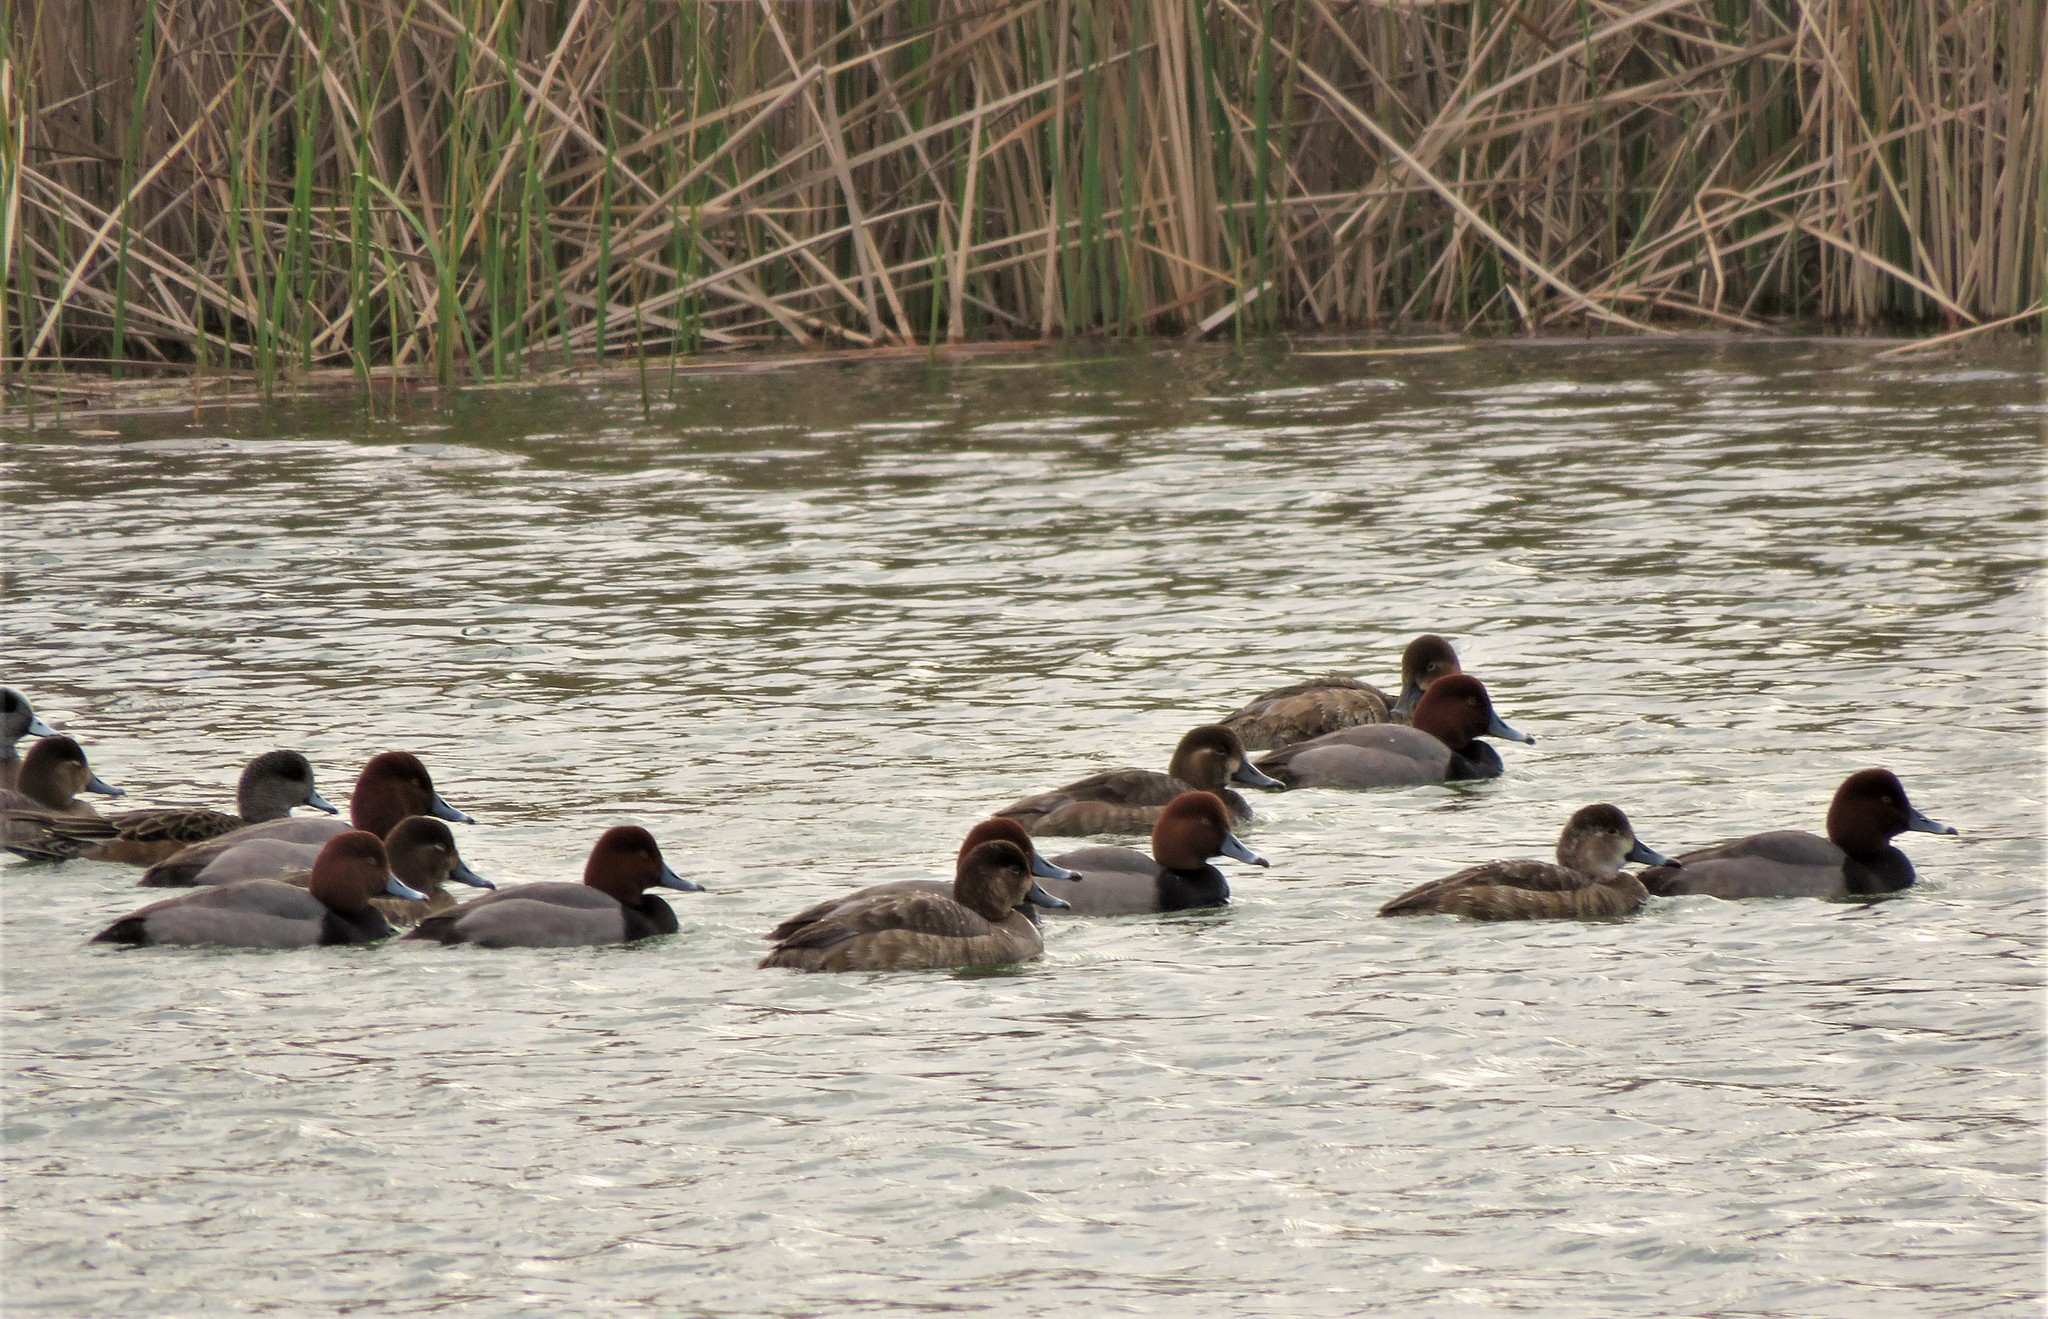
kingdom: Animalia
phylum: Chordata
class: Aves
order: Anseriformes
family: Anatidae
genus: Aythya
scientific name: Aythya americana
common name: Redhead
